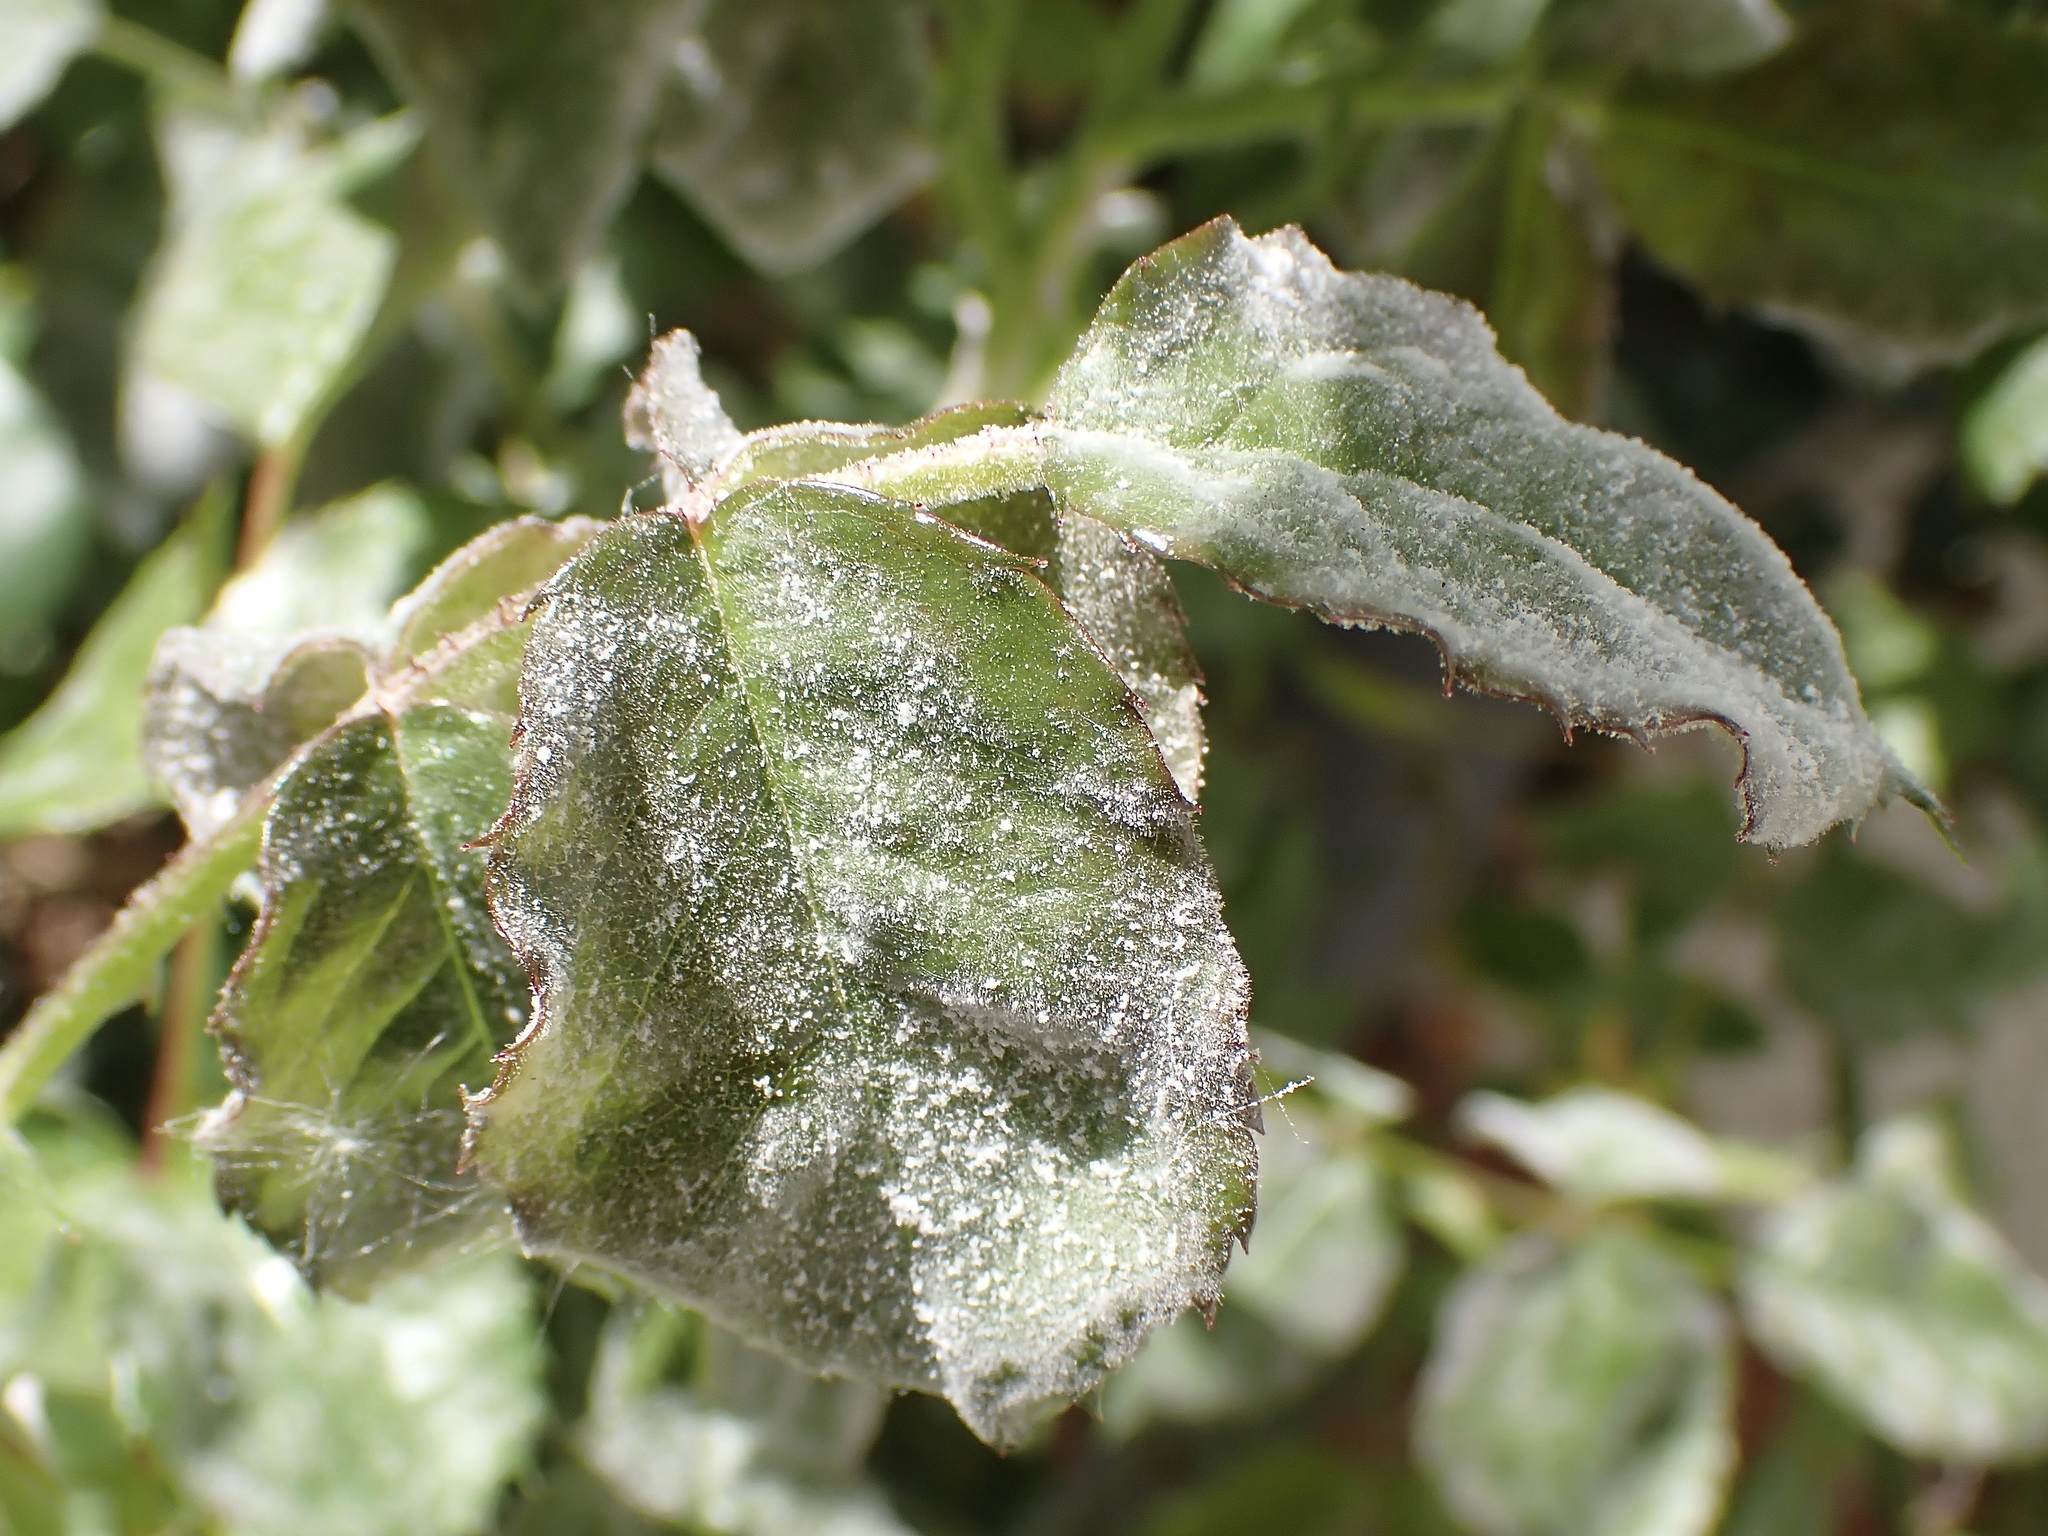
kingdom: Fungi
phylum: Ascomycota
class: Leotiomycetes
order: Helotiales
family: Erysiphaceae
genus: Podosphaera
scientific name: Podosphaera pannosa
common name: Rose mildew
